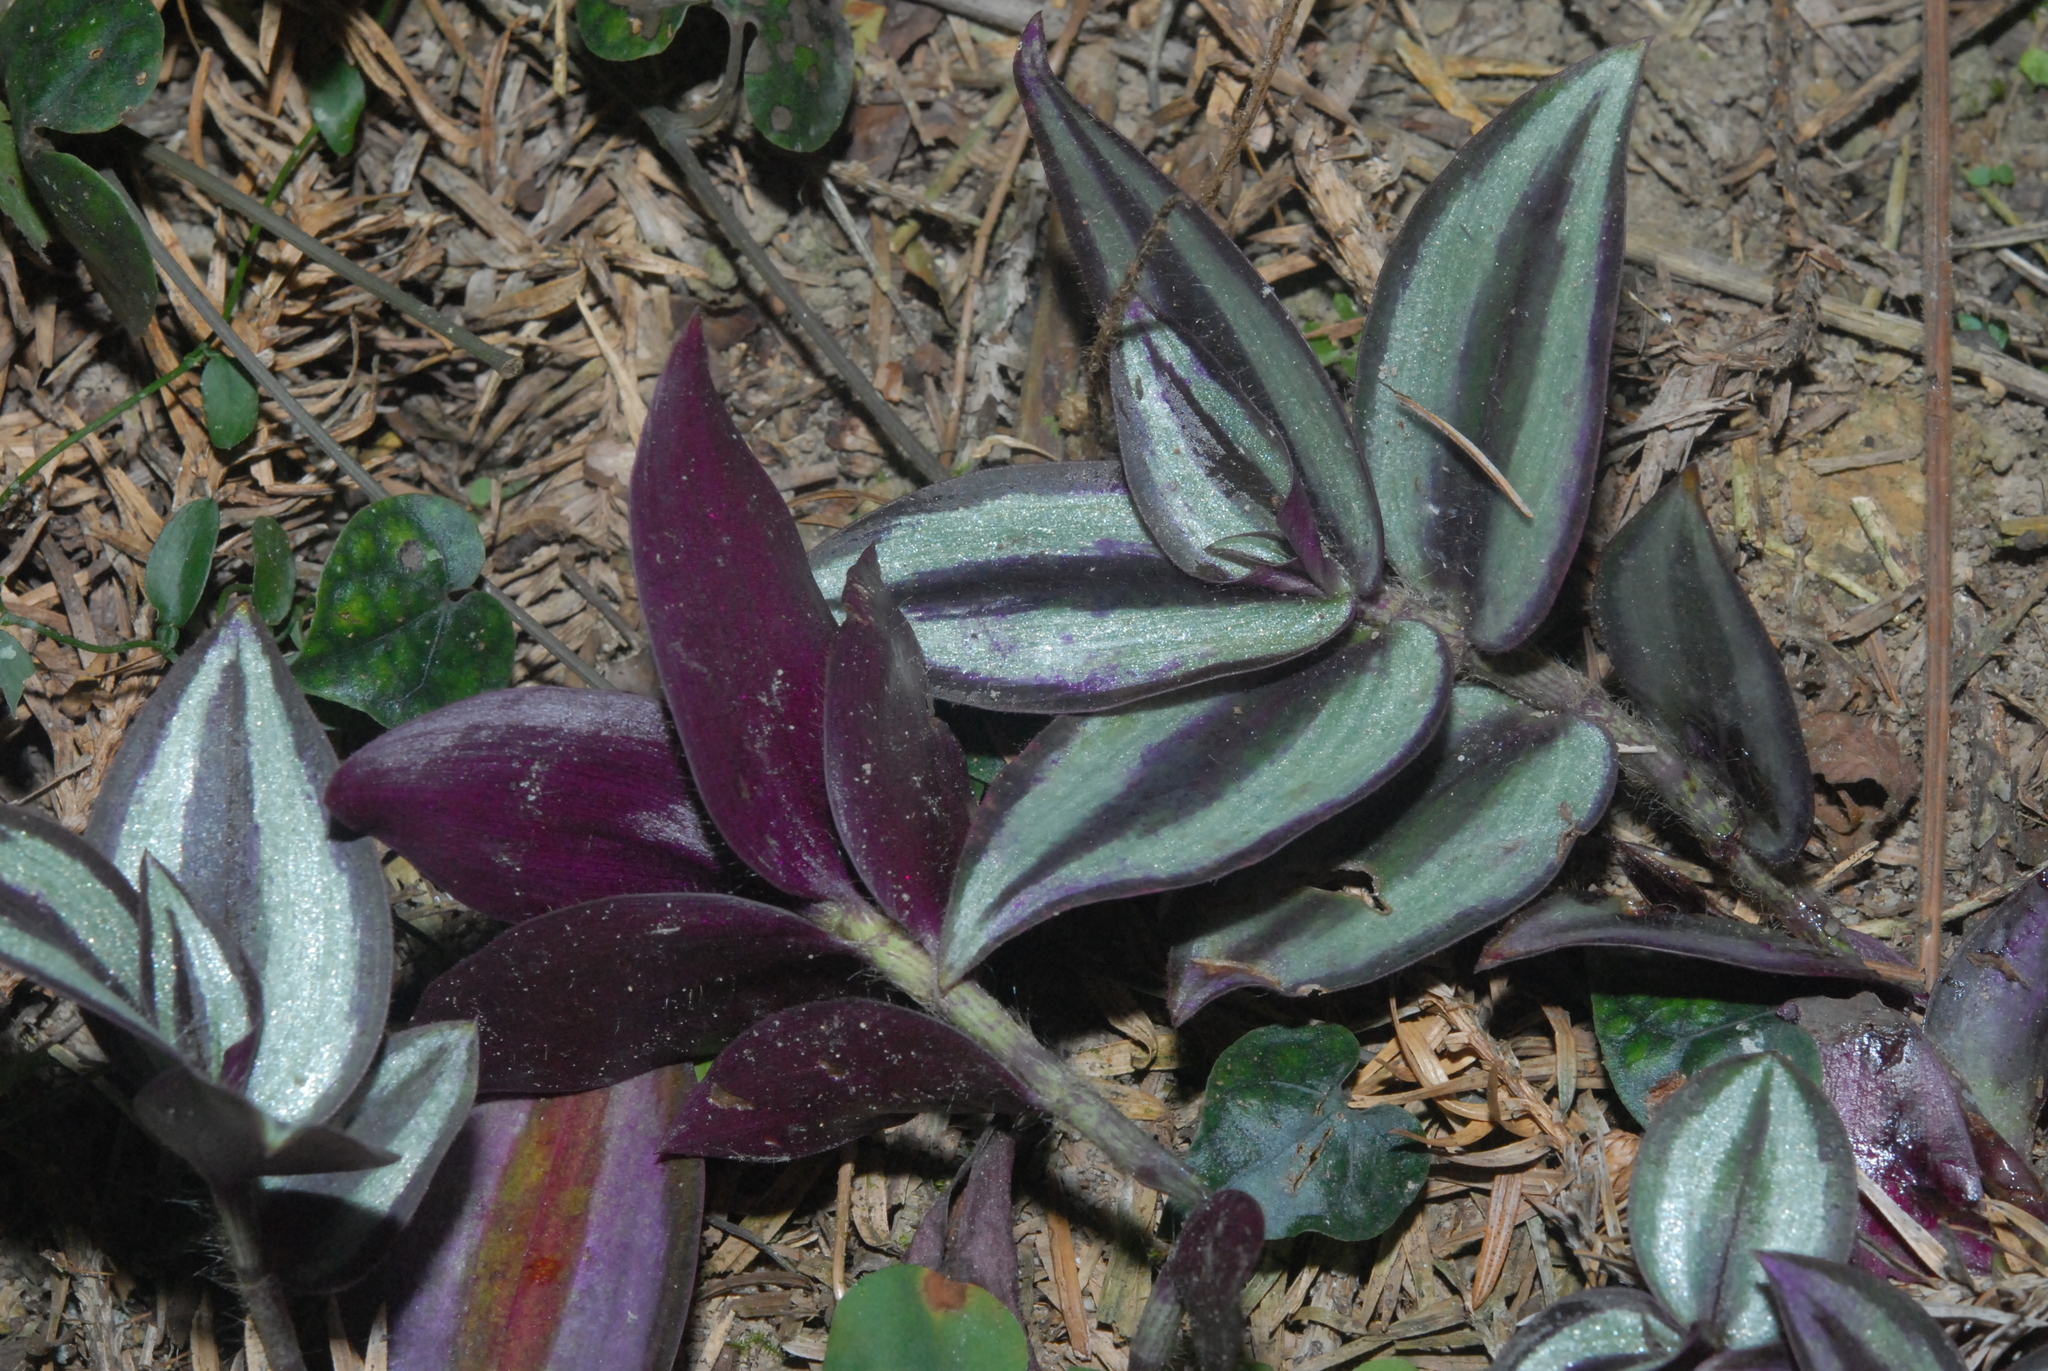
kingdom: Plantae
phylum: Tracheophyta
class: Liliopsida
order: Commelinales
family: Commelinaceae
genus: Tradescantia
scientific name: Tradescantia zebrina
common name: Inchplant
